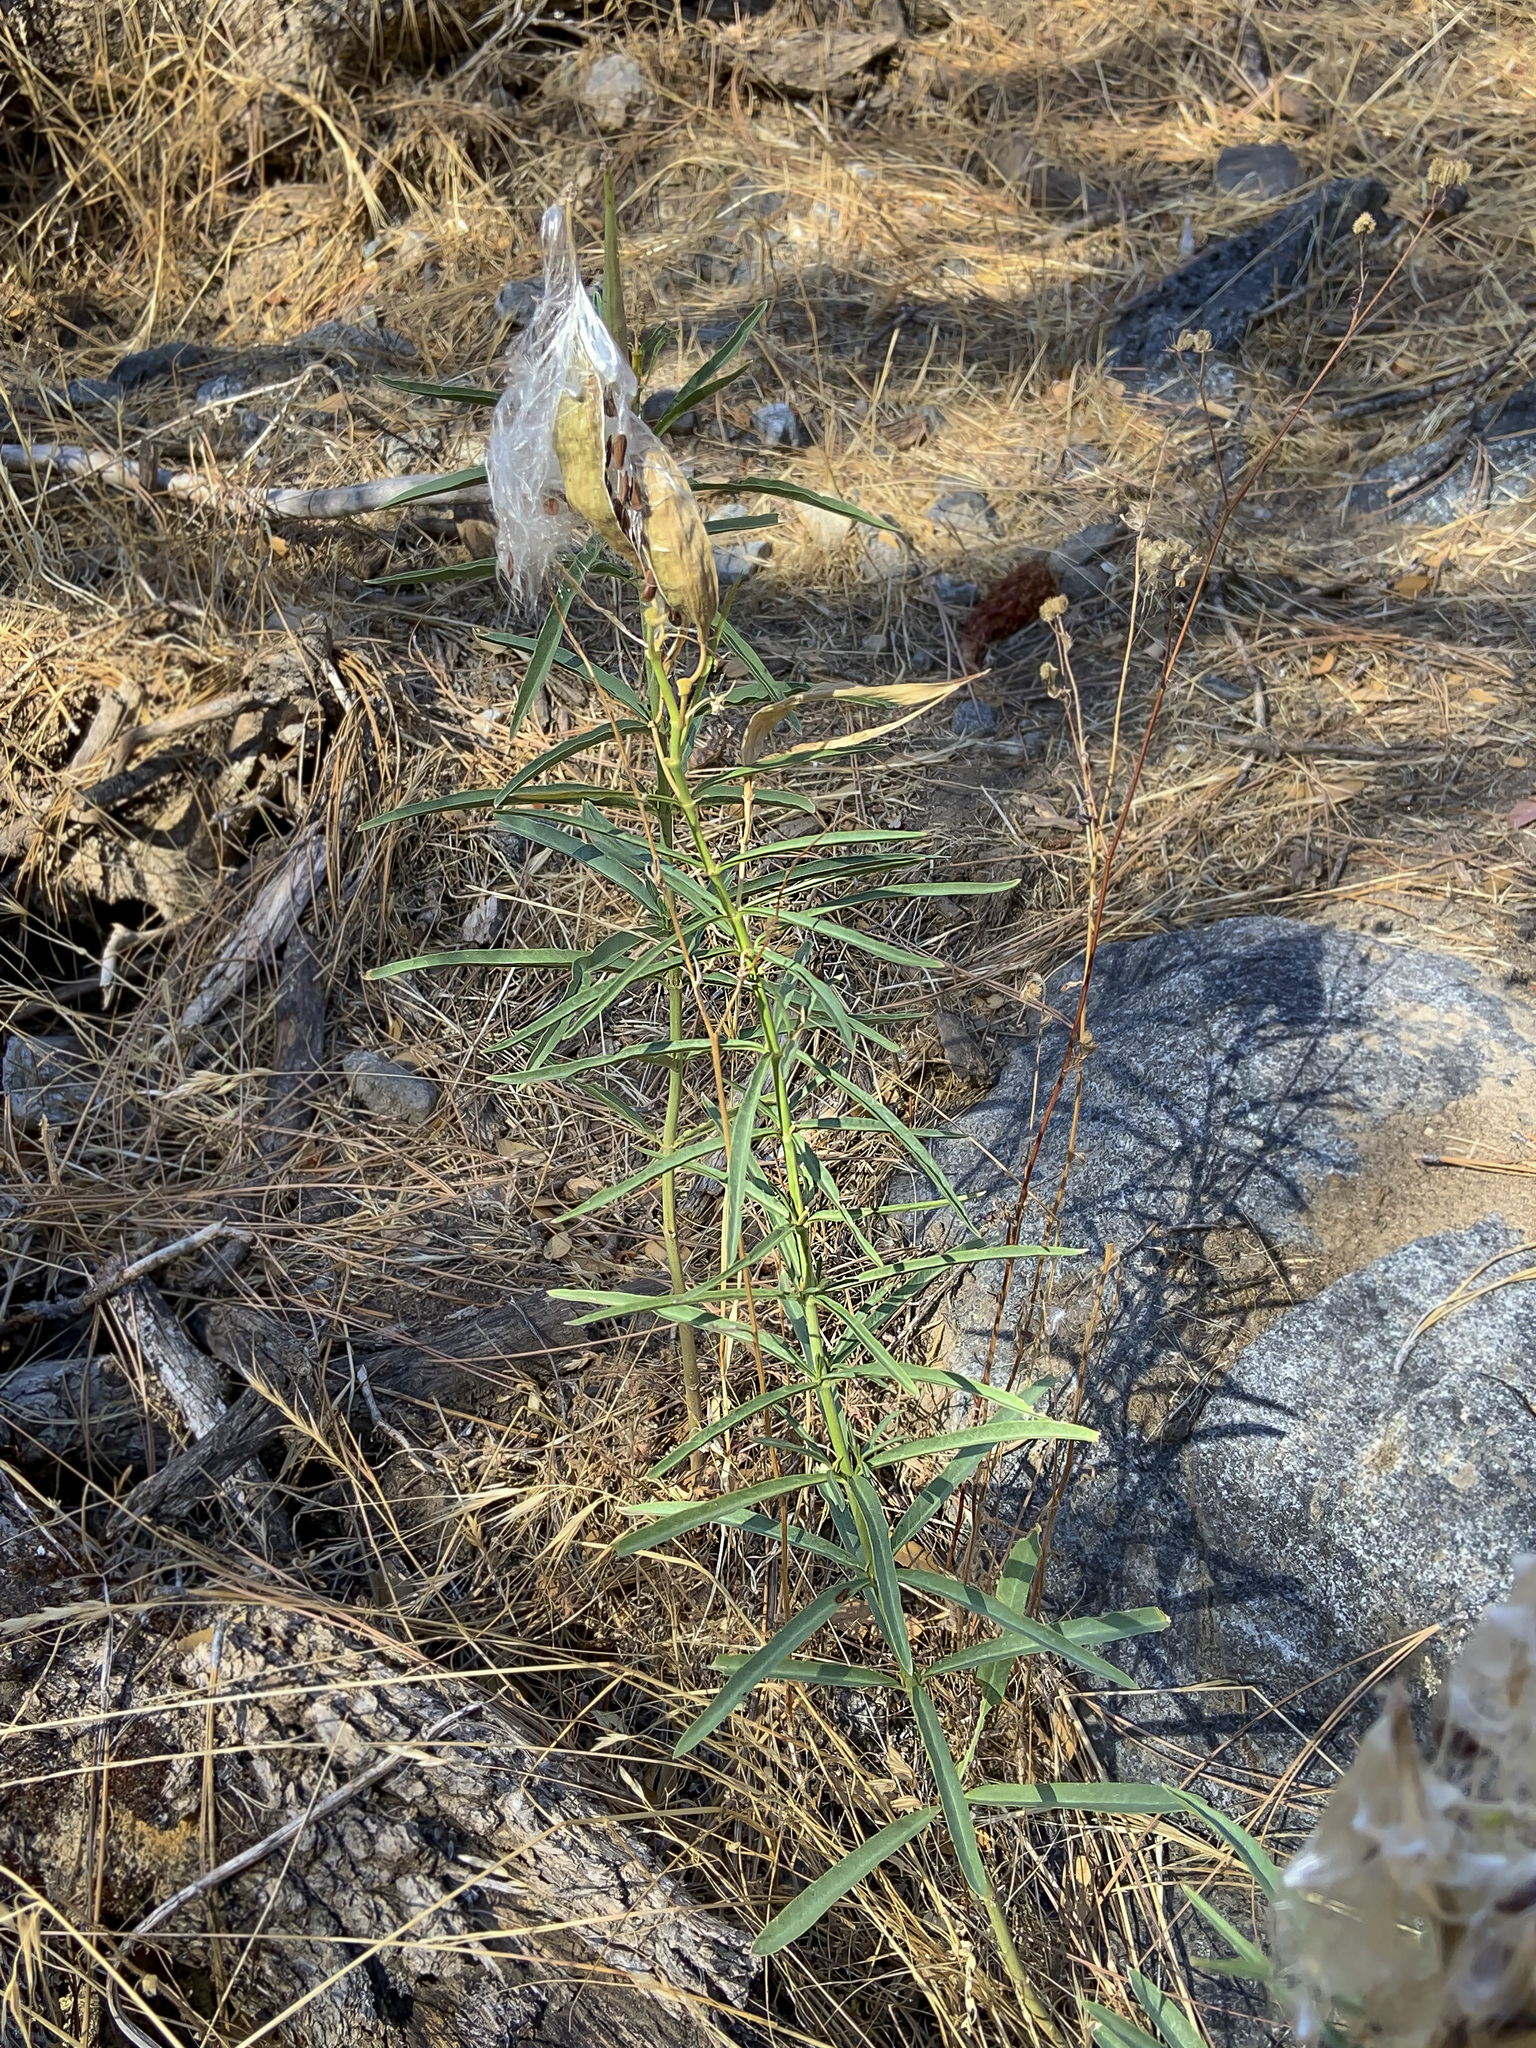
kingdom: Plantae
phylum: Tracheophyta
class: Magnoliopsida
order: Gentianales
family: Apocynaceae
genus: Asclepias
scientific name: Asclepias fascicularis
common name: Mexican milkweed
